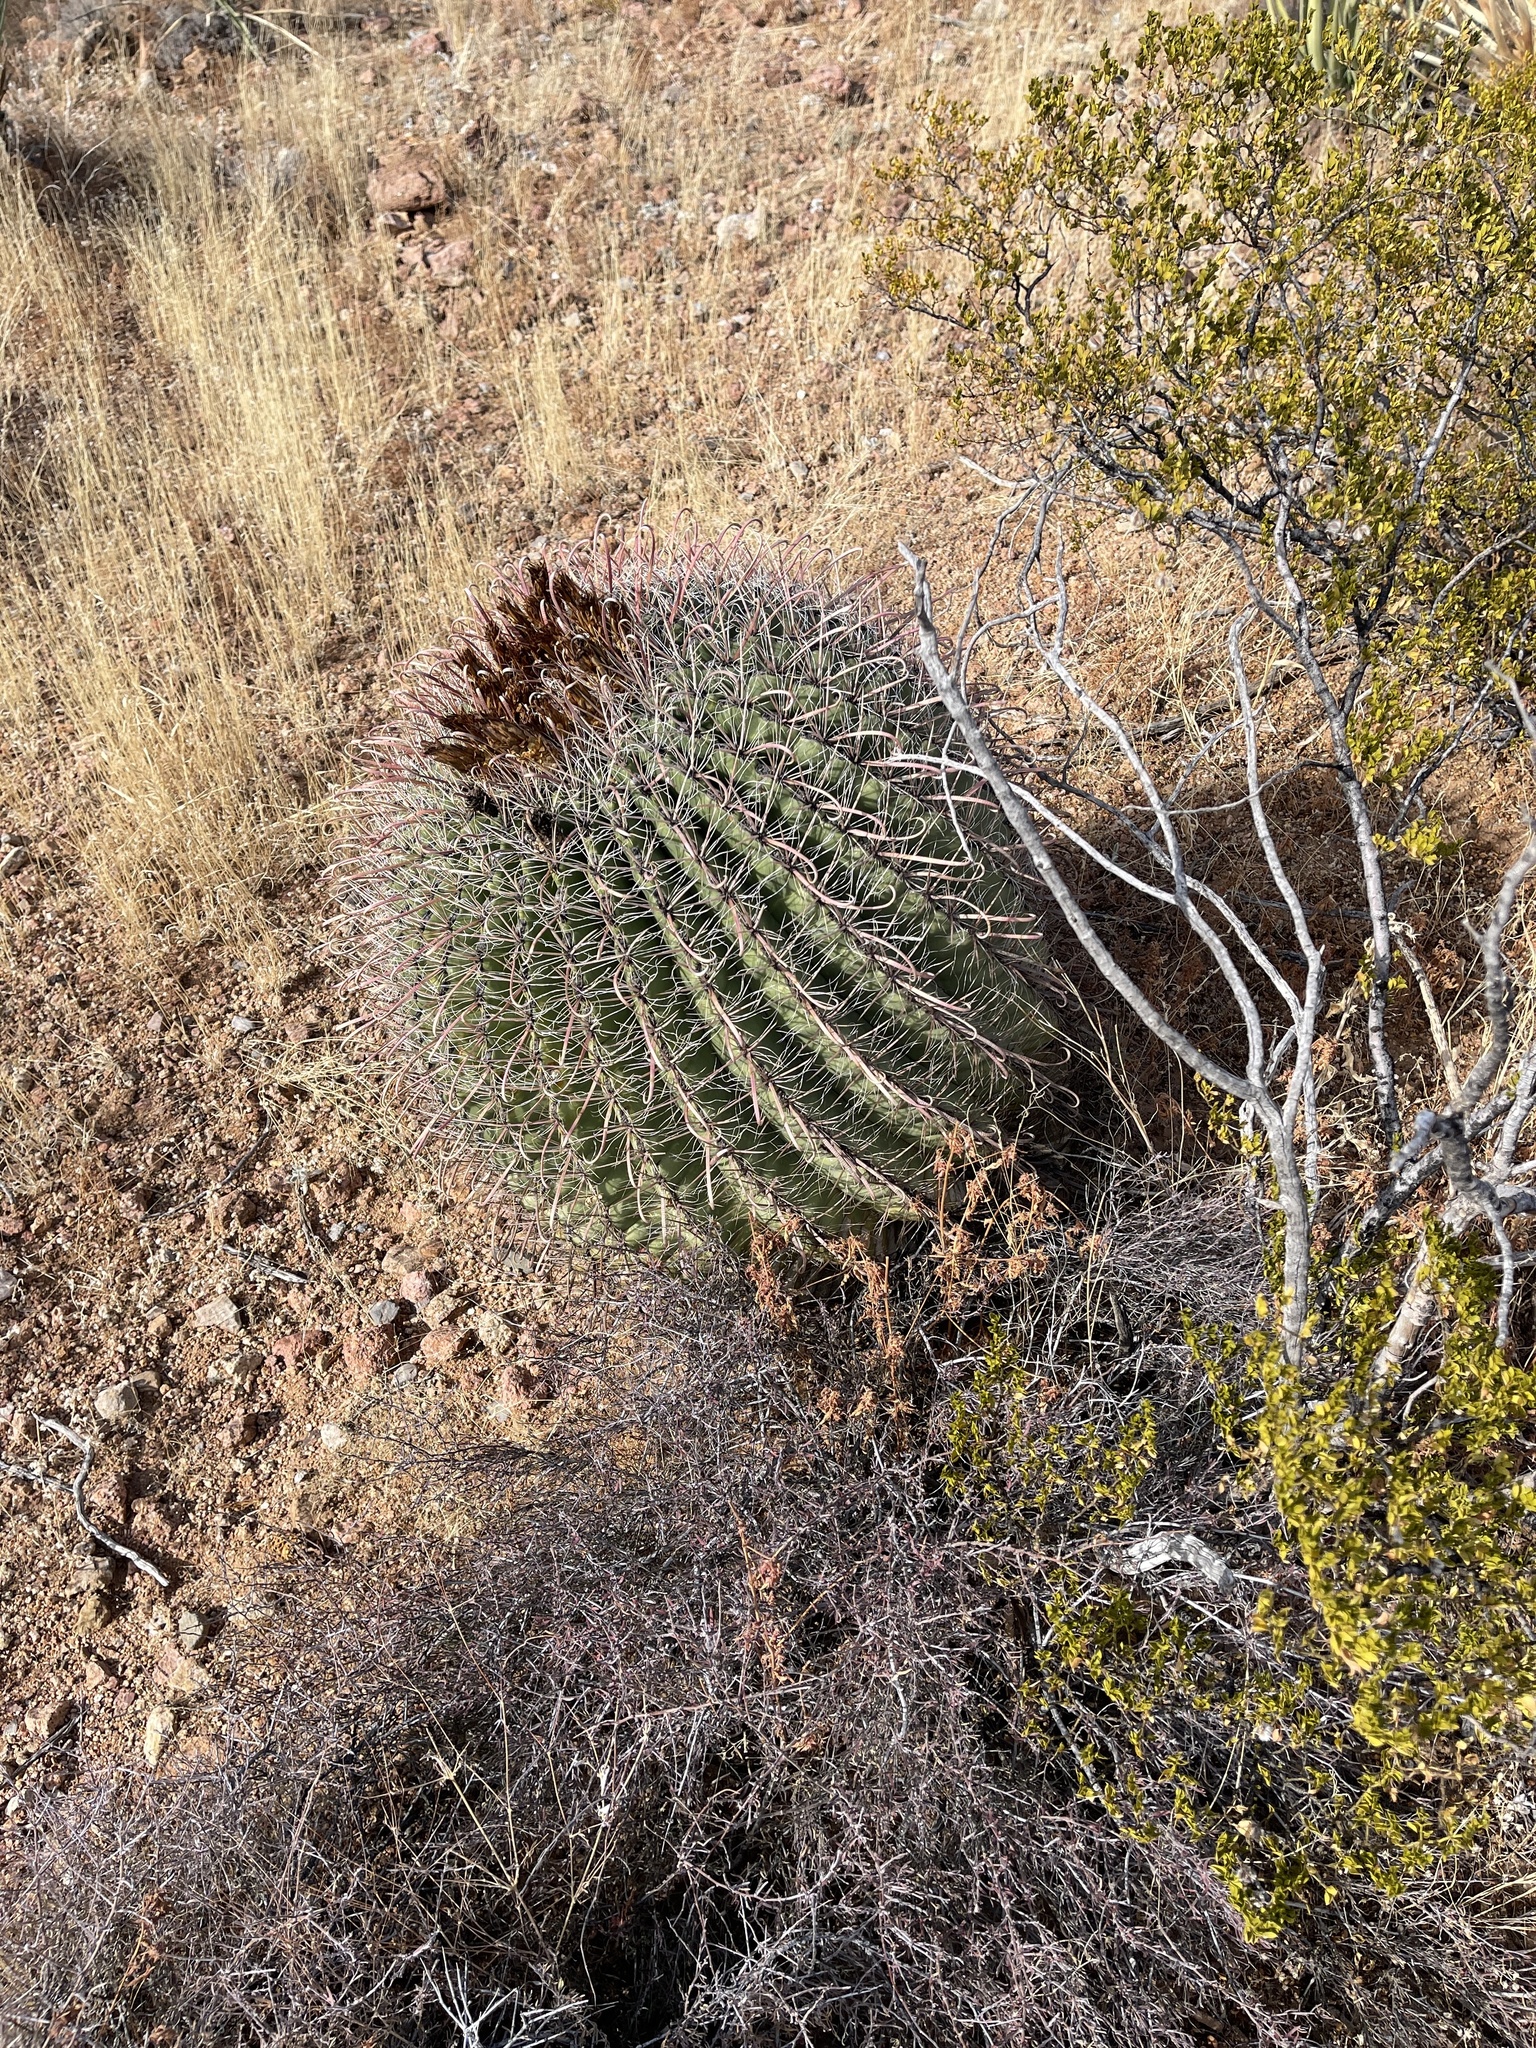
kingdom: Plantae
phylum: Tracheophyta
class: Magnoliopsida
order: Caryophyllales
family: Cactaceae
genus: Ferocactus
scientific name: Ferocactus wislizeni
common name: Candy barrel cactus
